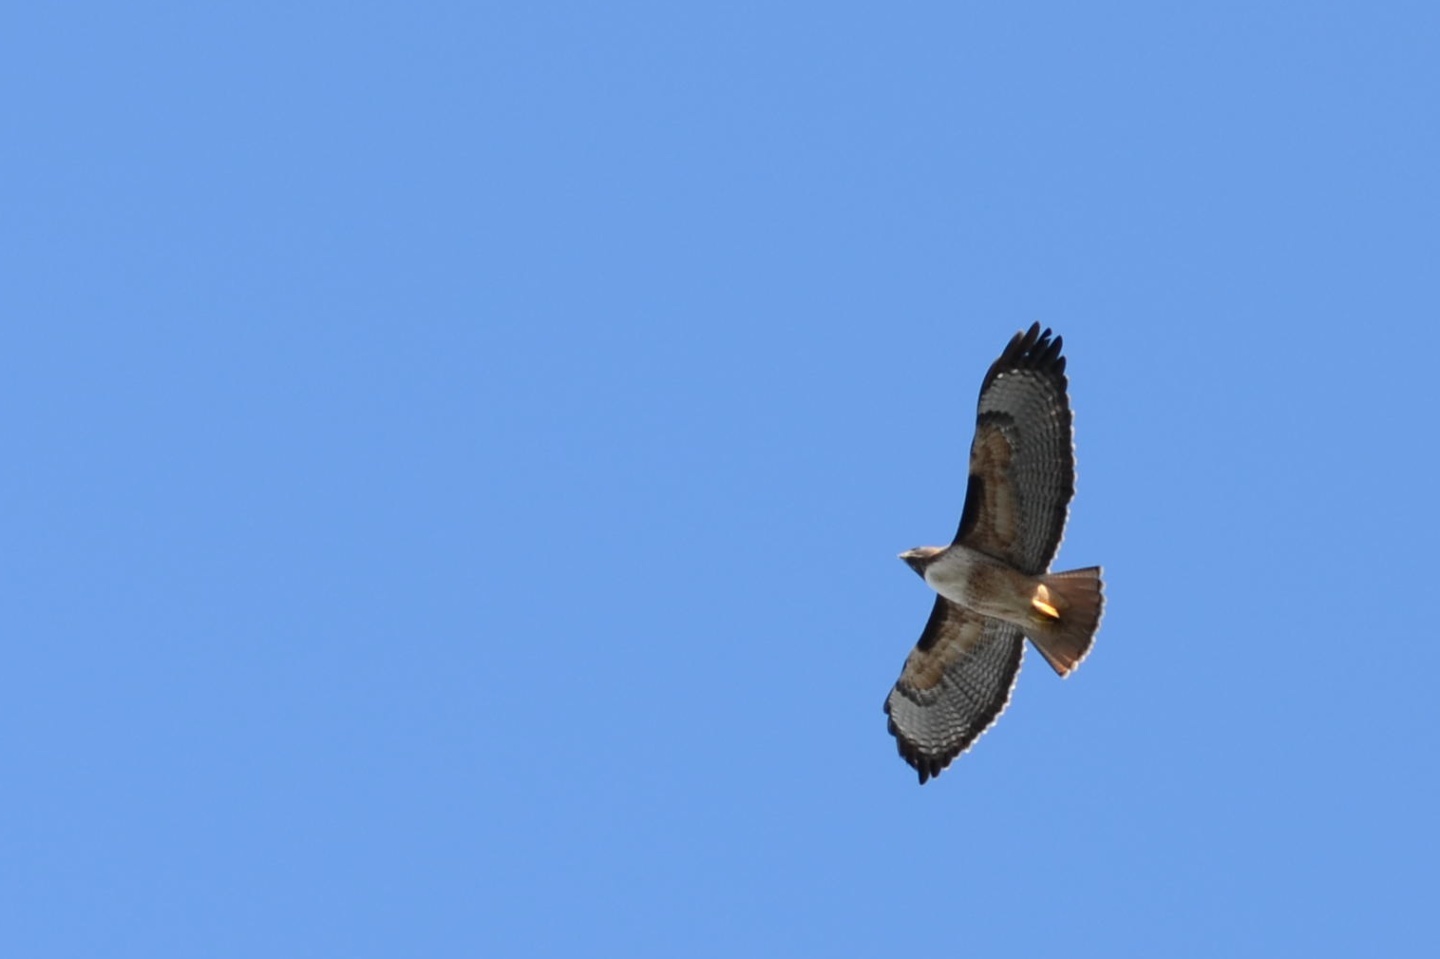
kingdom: Animalia
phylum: Chordata
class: Aves
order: Accipitriformes
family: Accipitridae
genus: Buteo
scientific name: Buteo jamaicensis
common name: Red-tailed hawk
